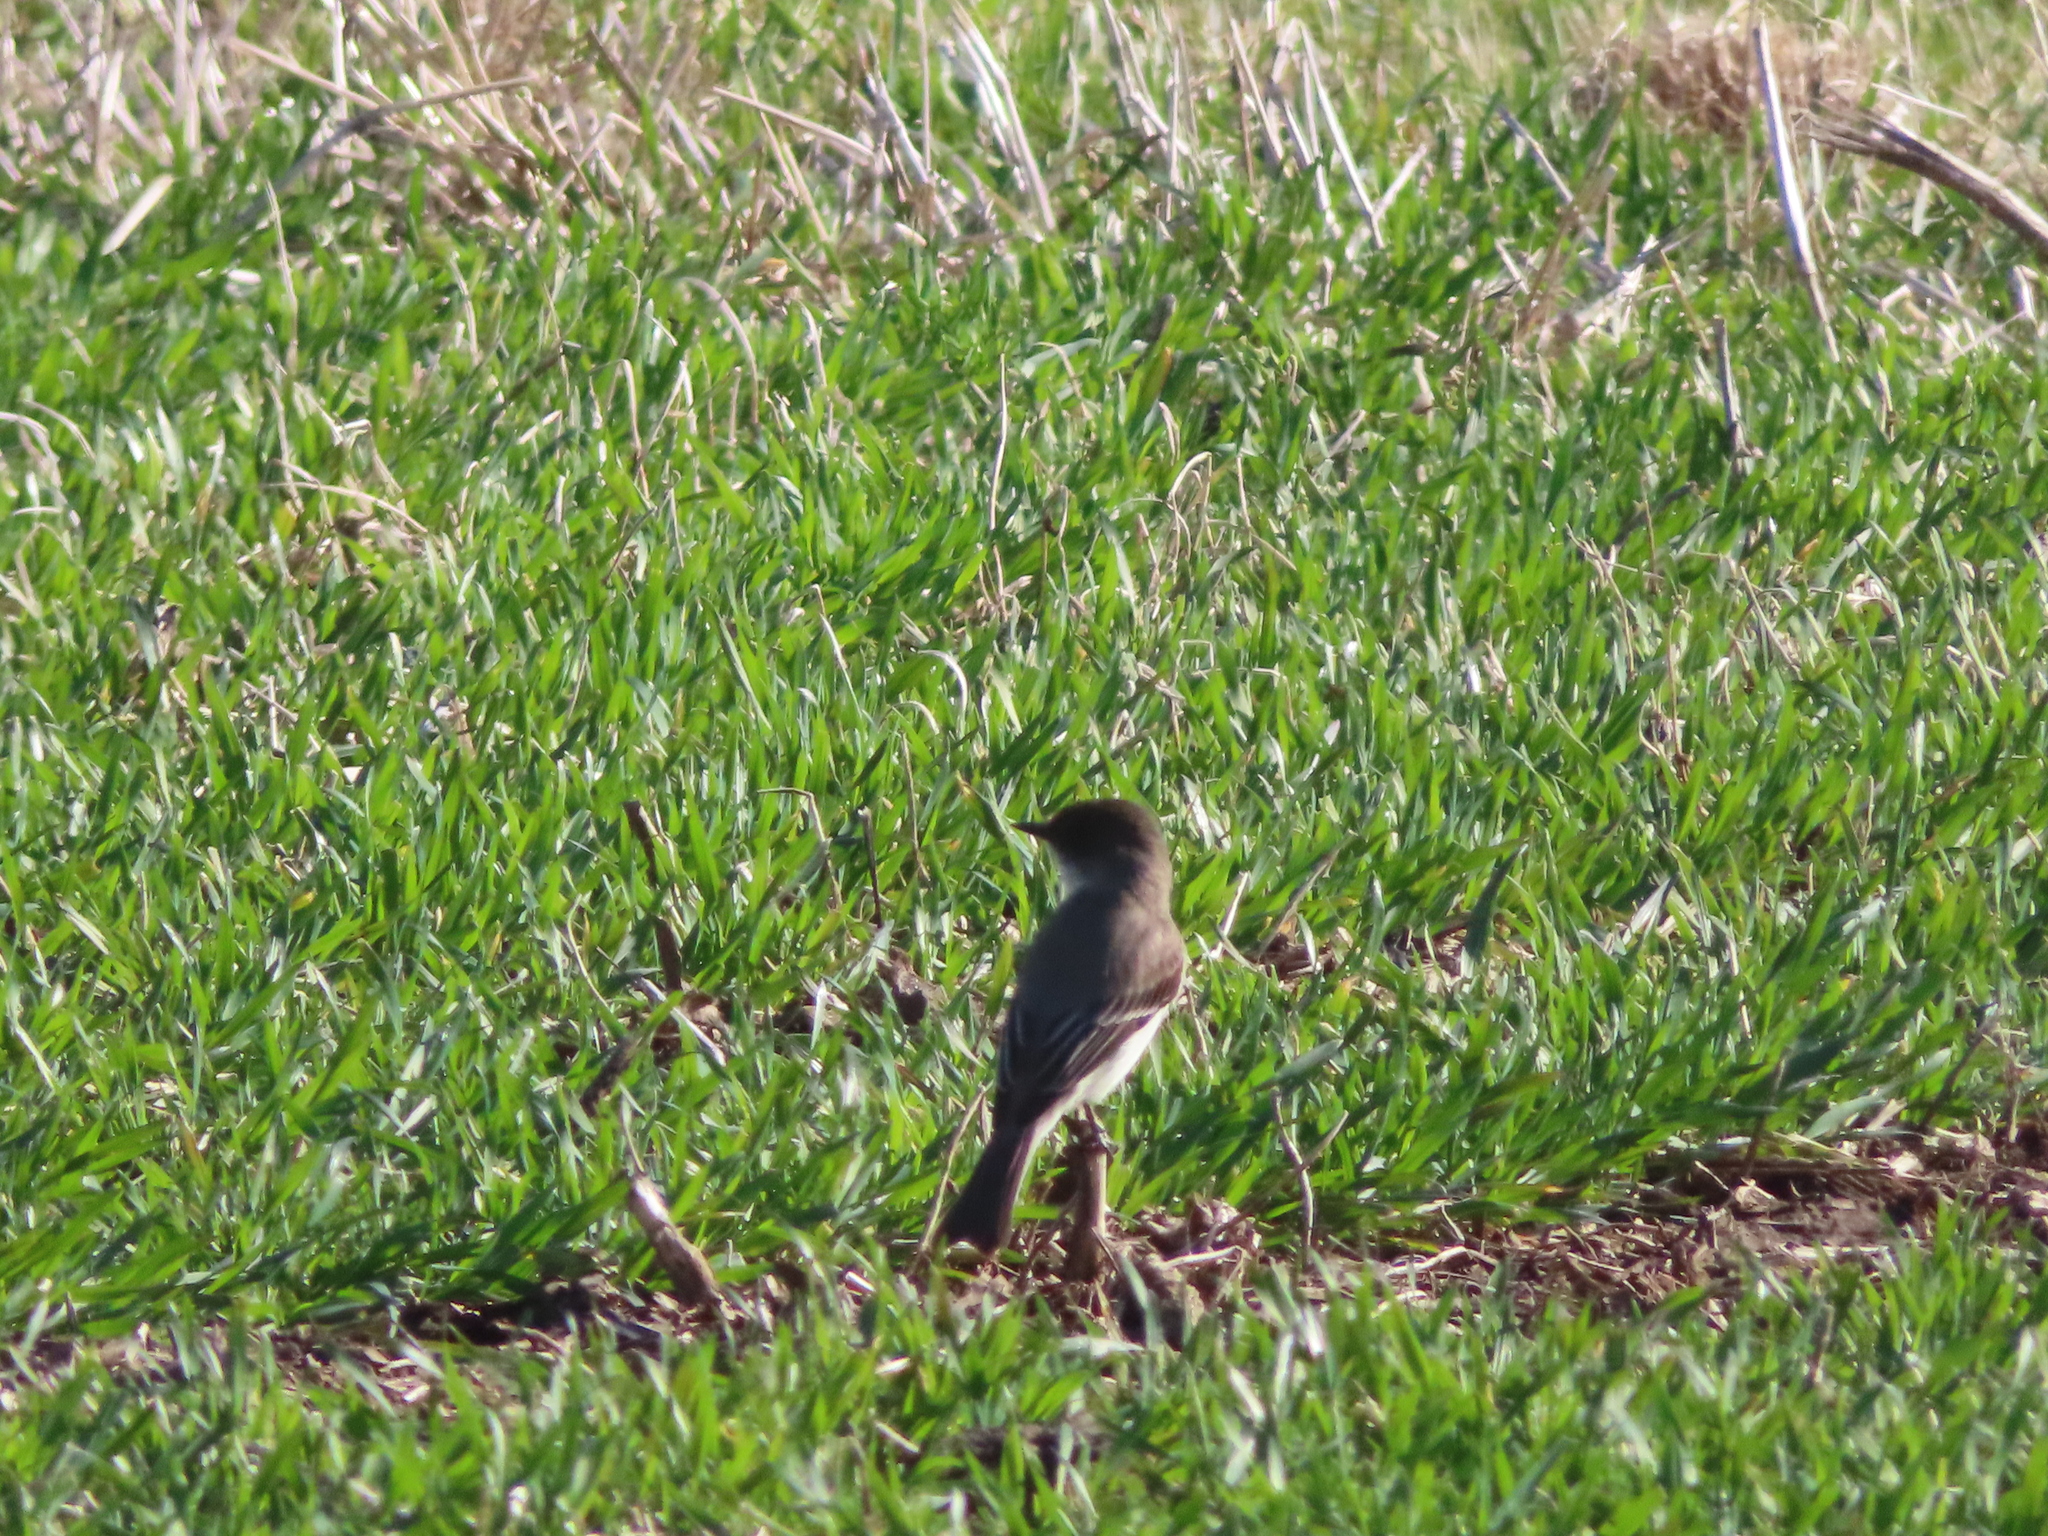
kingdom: Animalia
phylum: Chordata
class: Aves
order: Passeriformes
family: Tyrannidae
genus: Sayornis
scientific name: Sayornis phoebe
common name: Eastern phoebe
